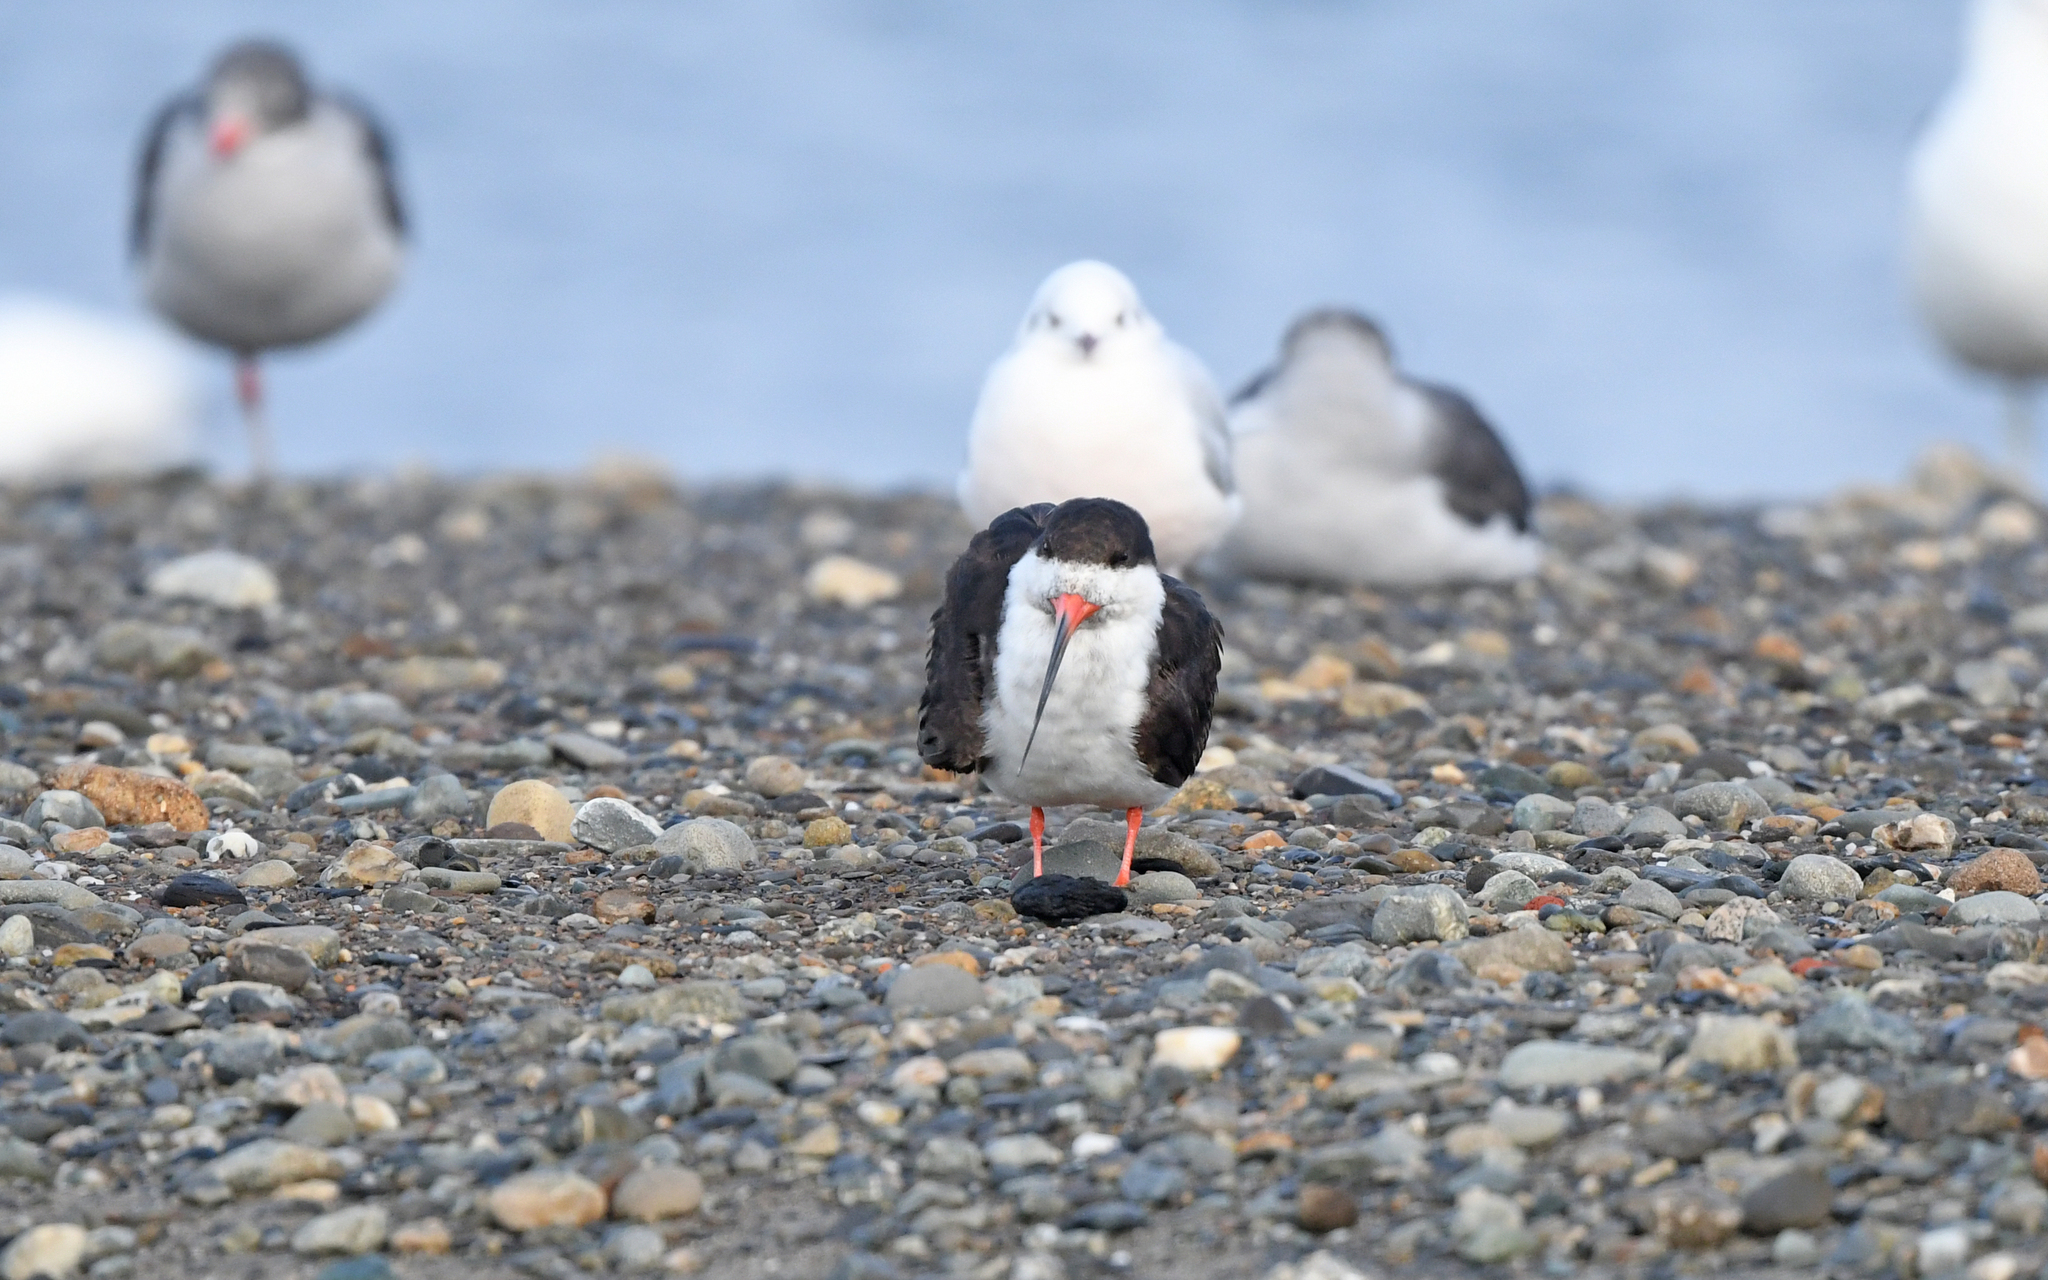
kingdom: Animalia
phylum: Chordata
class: Aves
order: Charadriiformes
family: Laridae
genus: Rynchops
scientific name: Rynchops niger
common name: Black skimmer
